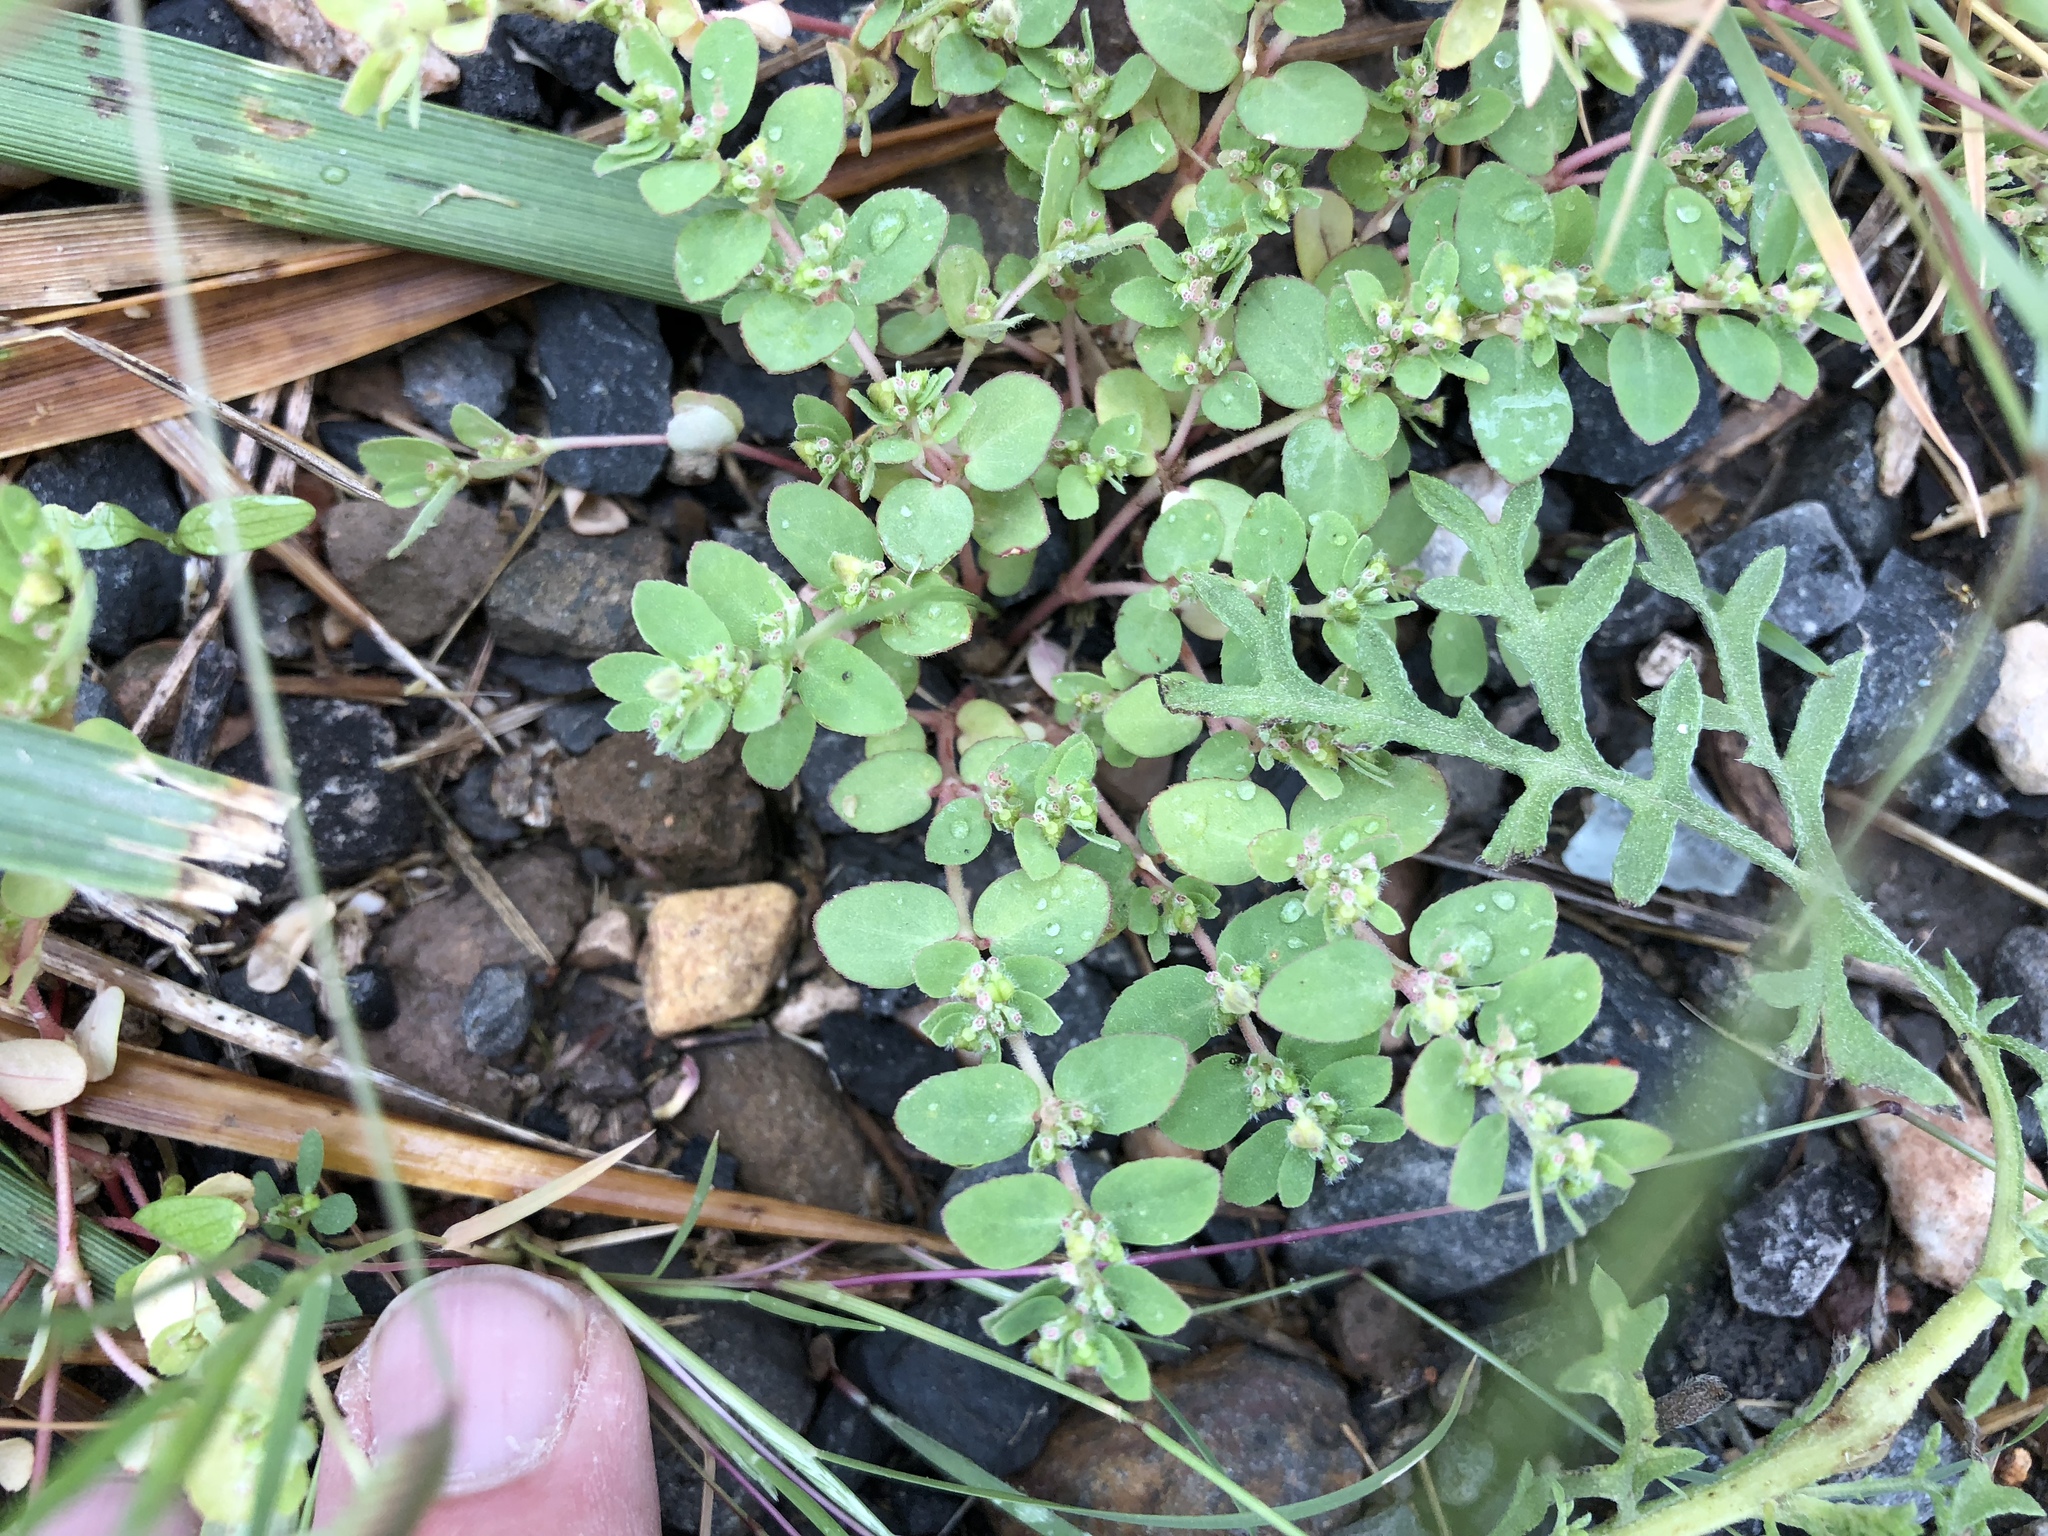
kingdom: Plantae
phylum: Tracheophyta
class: Magnoliopsida
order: Malpighiales
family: Euphorbiaceae
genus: Euphorbia
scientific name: Euphorbia prostrata
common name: Prostrate sandmat
